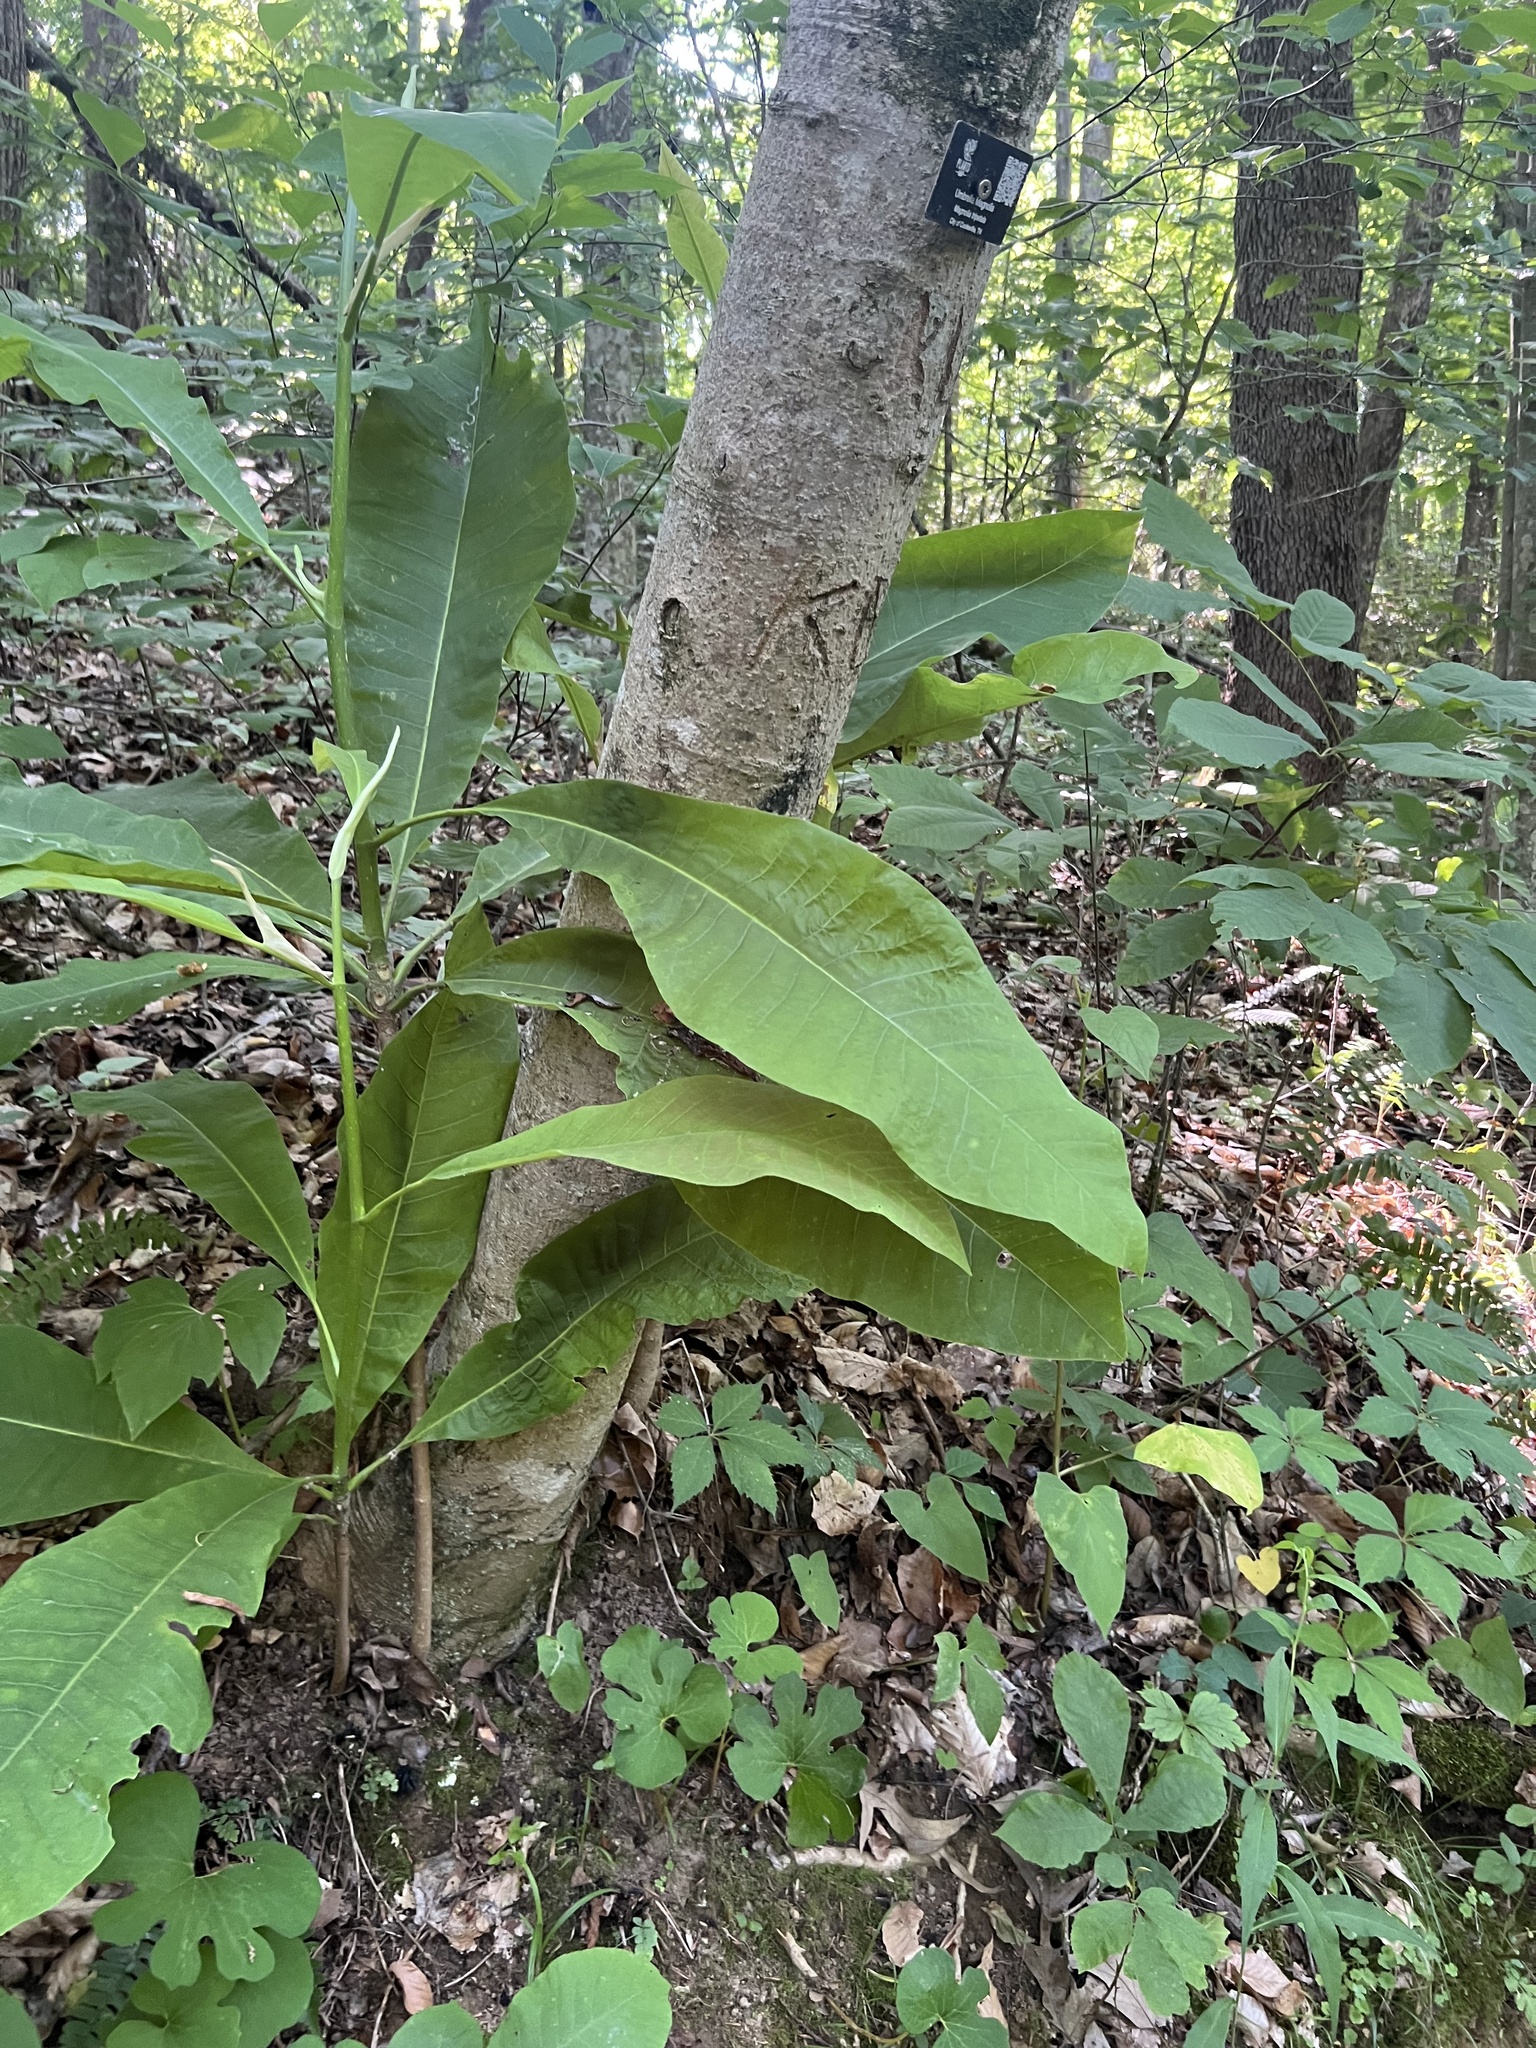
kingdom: Plantae
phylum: Tracheophyta
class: Magnoliopsida
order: Magnoliales
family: Magnoliaceae
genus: Magnolia
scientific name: Magnolia tripetala
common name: Umbrella magnolia
